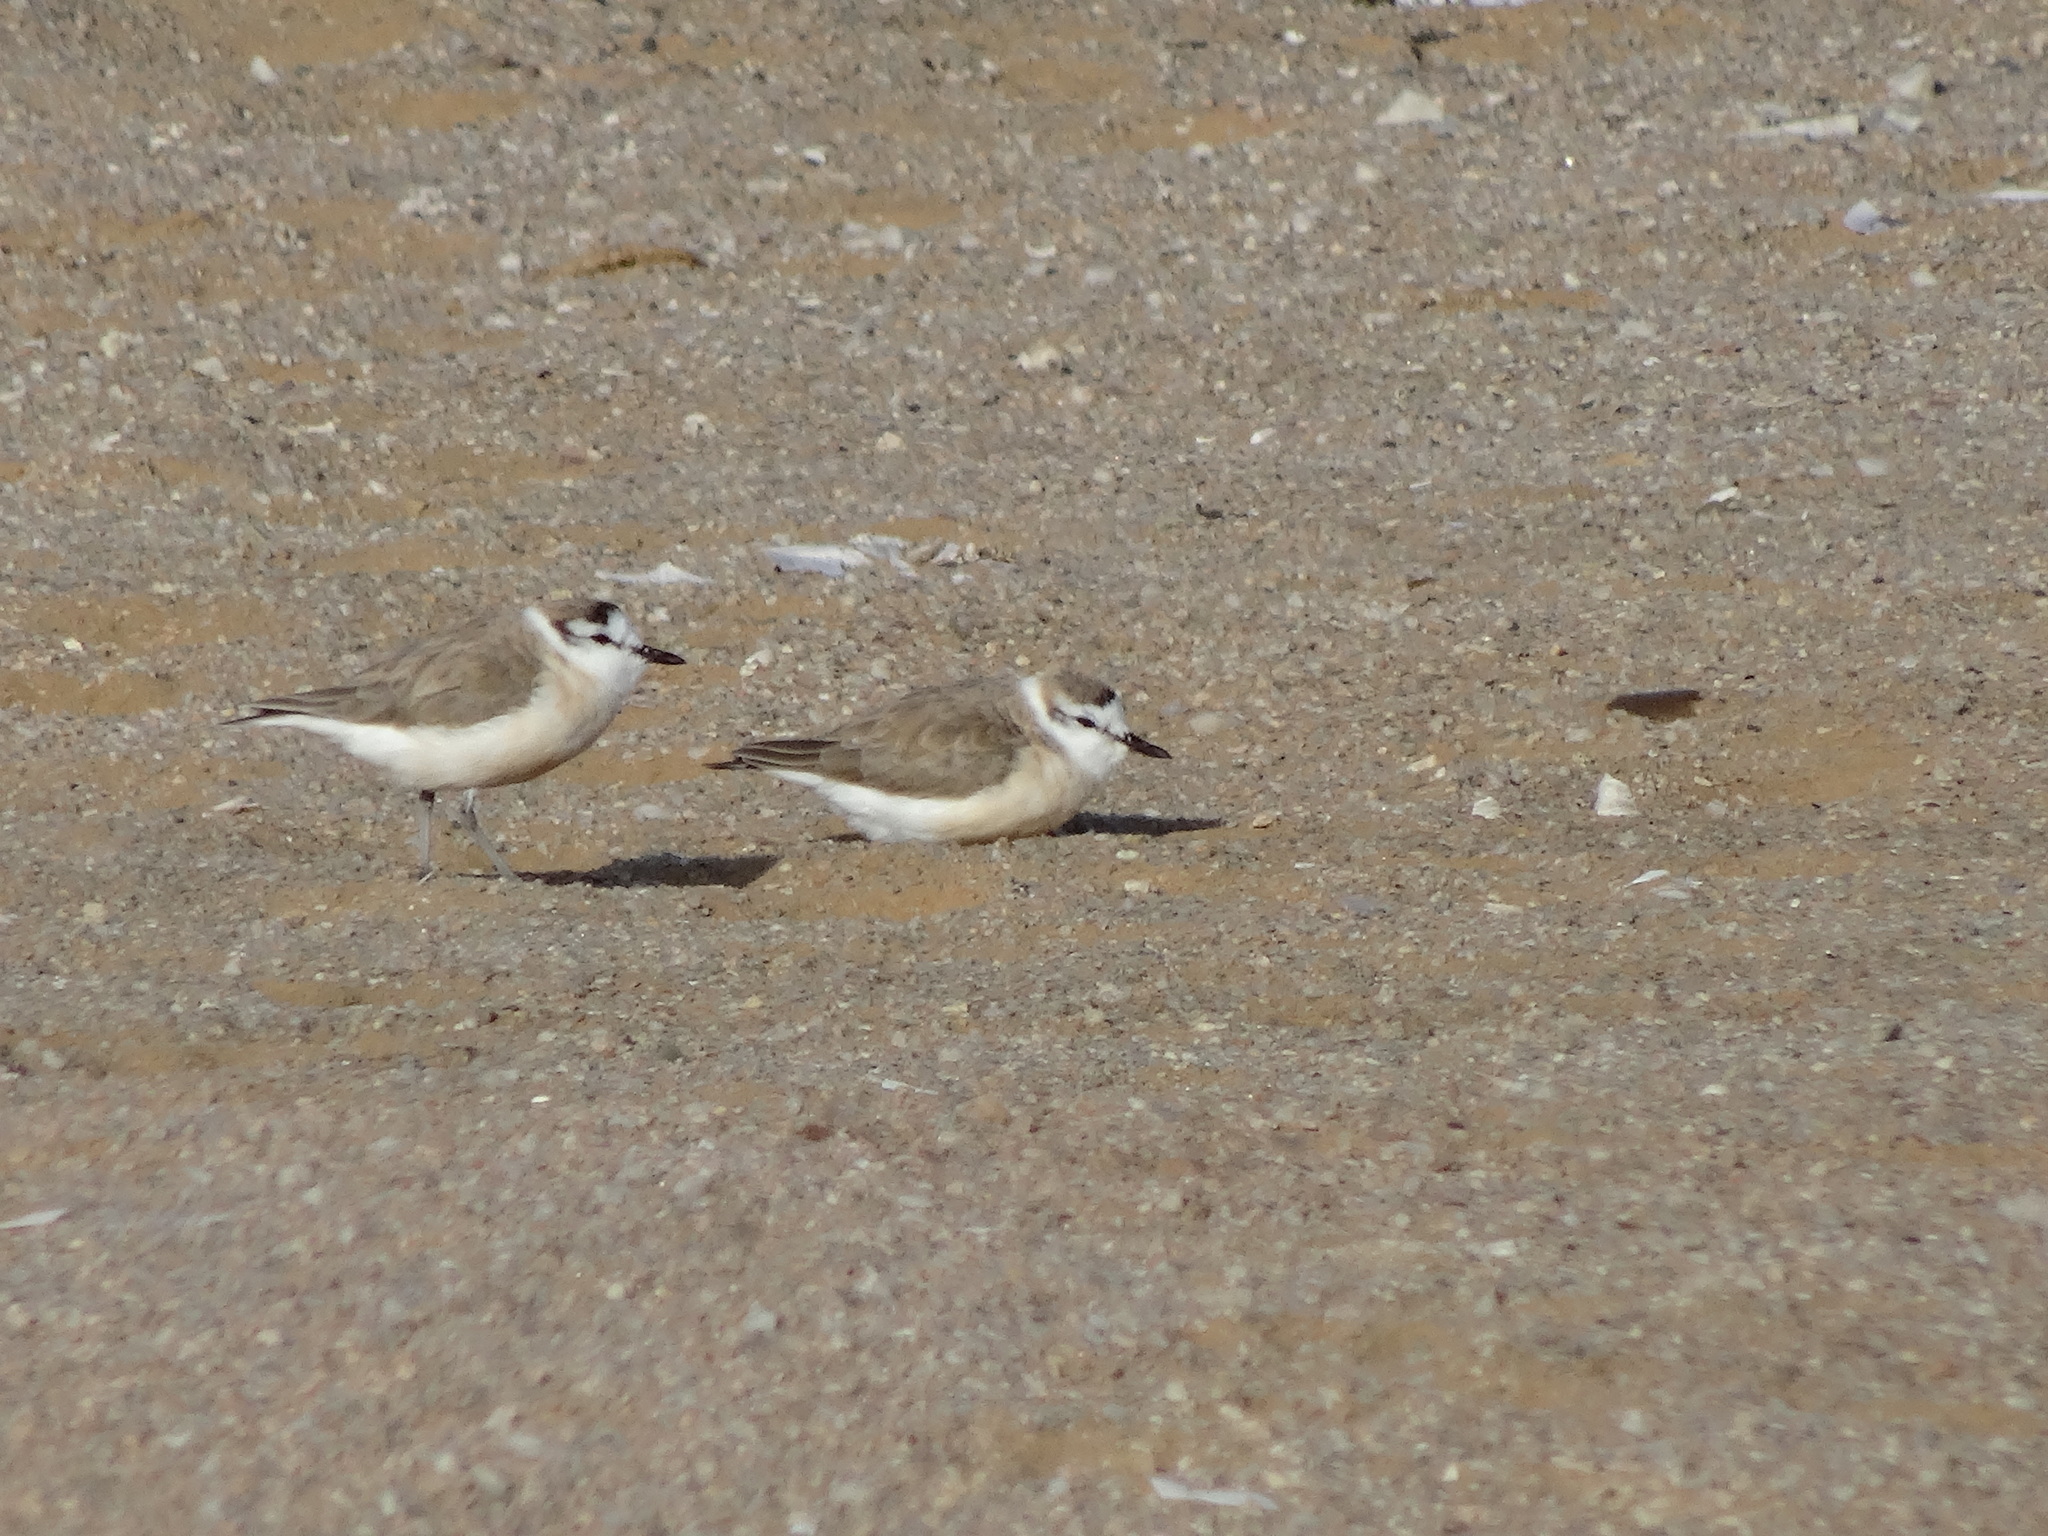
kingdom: Animalia
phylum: Chordata
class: Aves
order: Charadriiformes
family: Charadriidae
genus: Anarhynchus
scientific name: Anarhynchus
